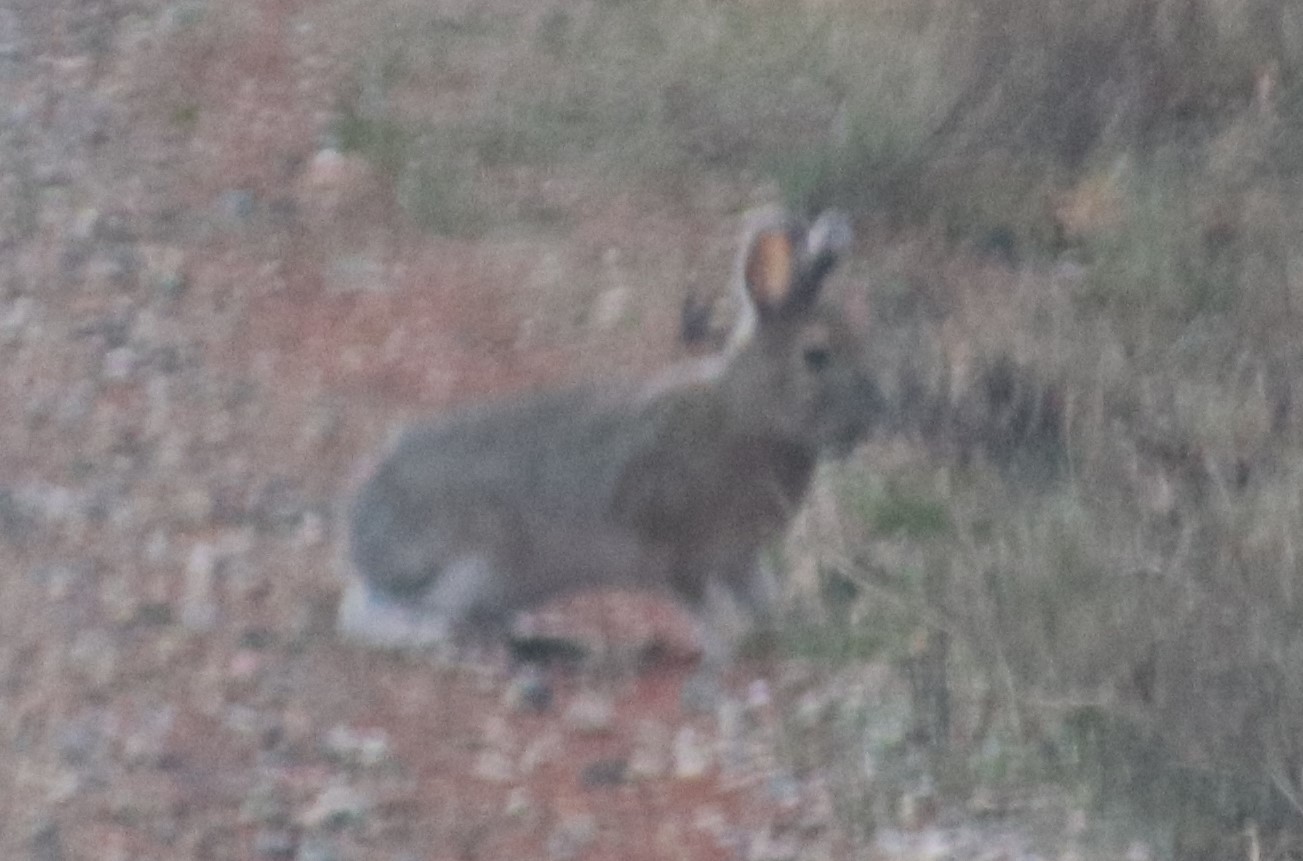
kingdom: Animalia
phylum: Chordata
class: Mammalia
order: Lagomorpha
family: Leporidae
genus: Lepus
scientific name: Lepus americanus
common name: Snowshoe hare
